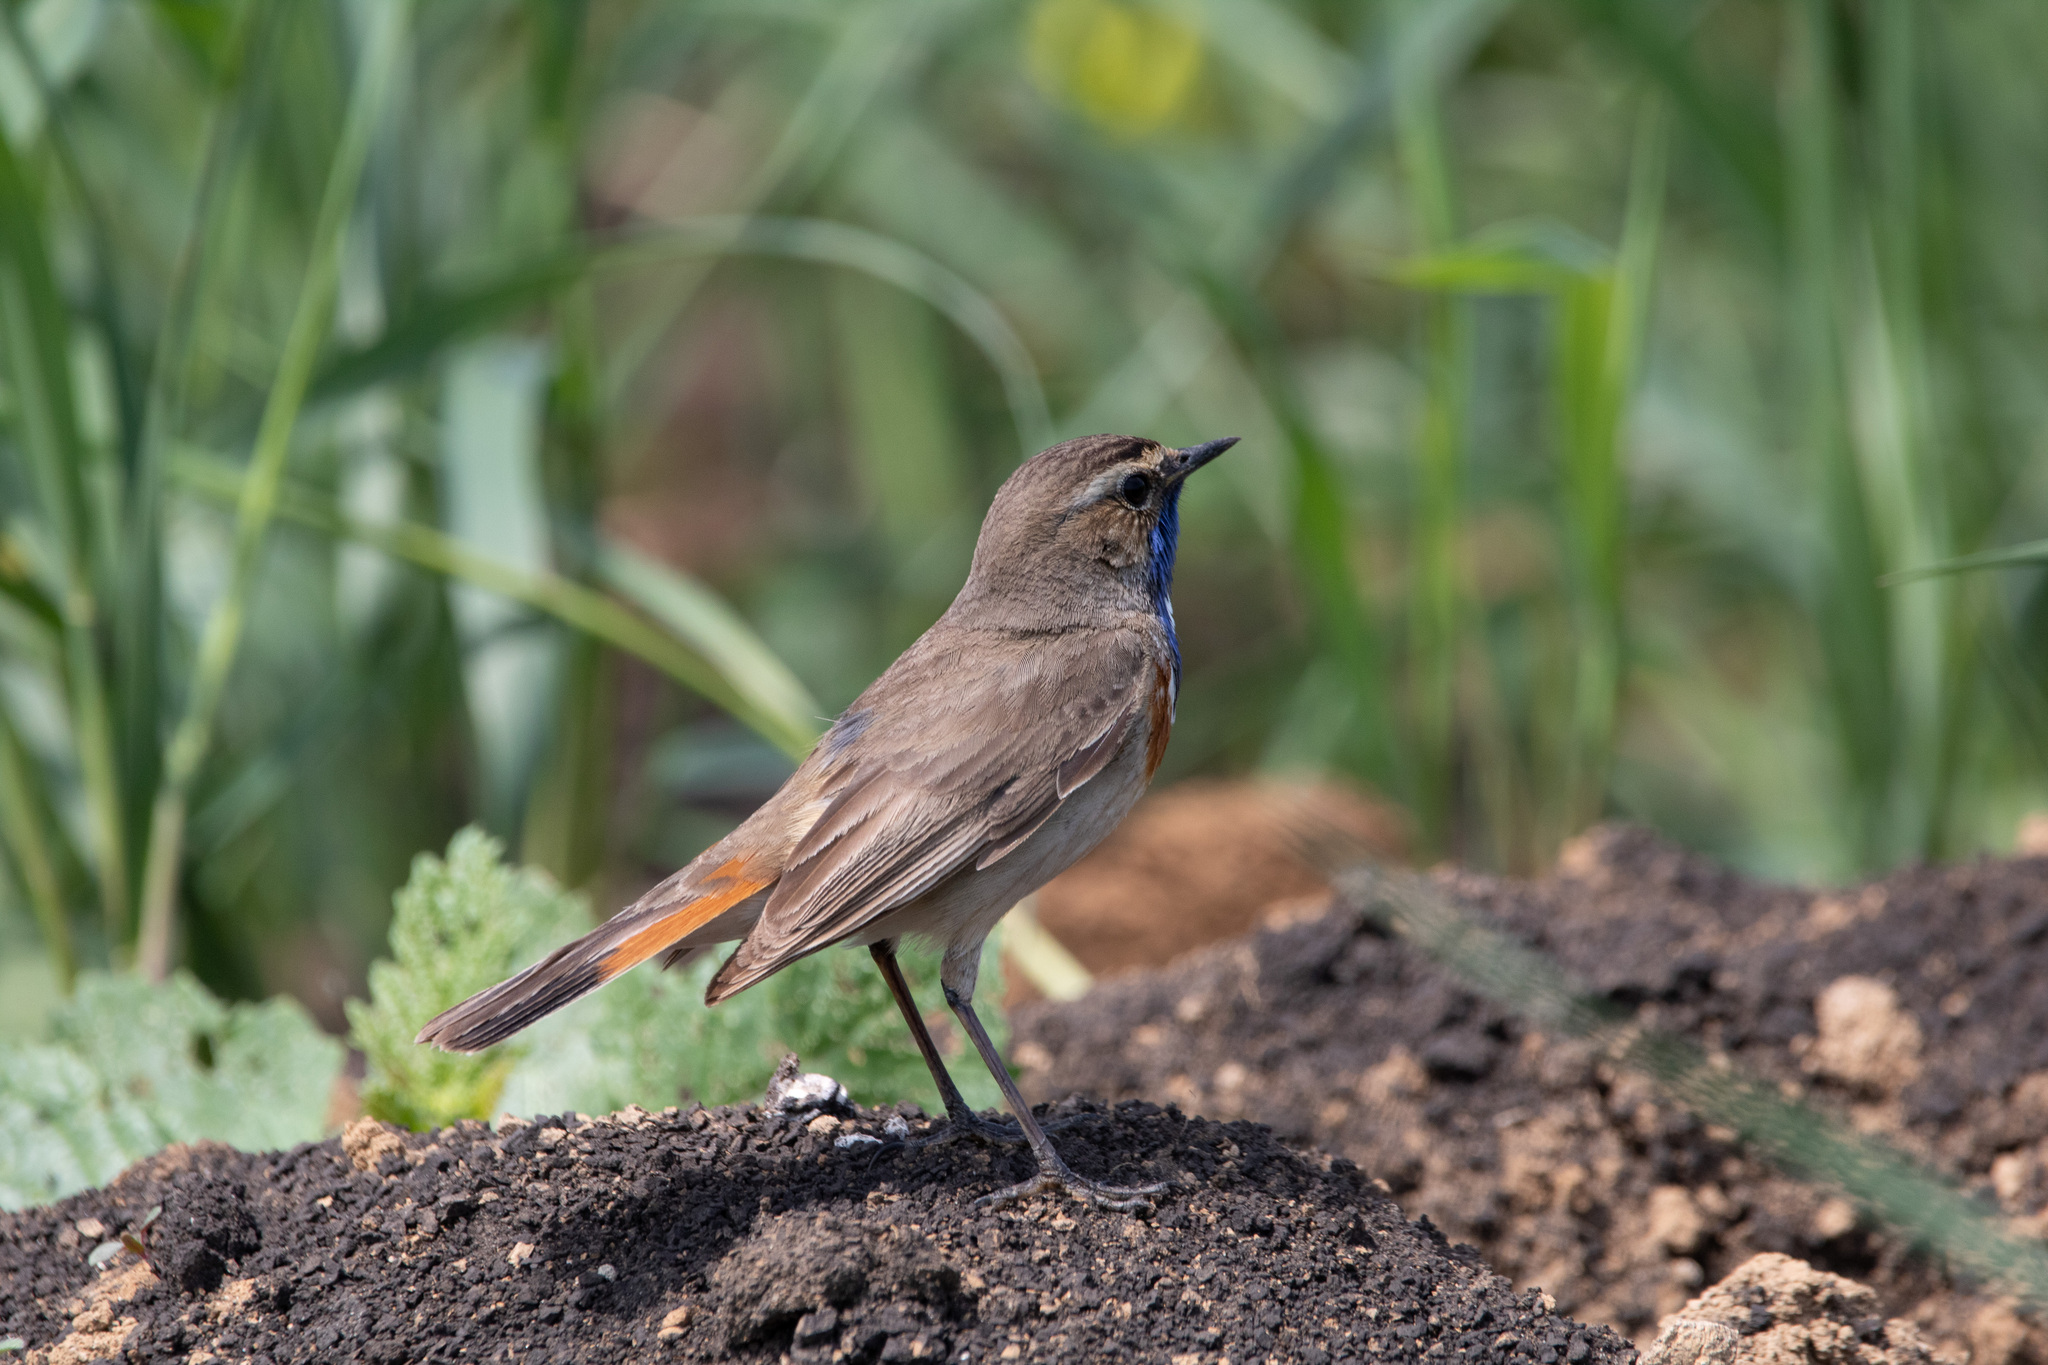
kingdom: Animalia
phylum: Chordata
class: Aves
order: Passeriformes
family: Muscicapidae
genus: Luscinia
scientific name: Luscinia svecica
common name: Bluethroat
